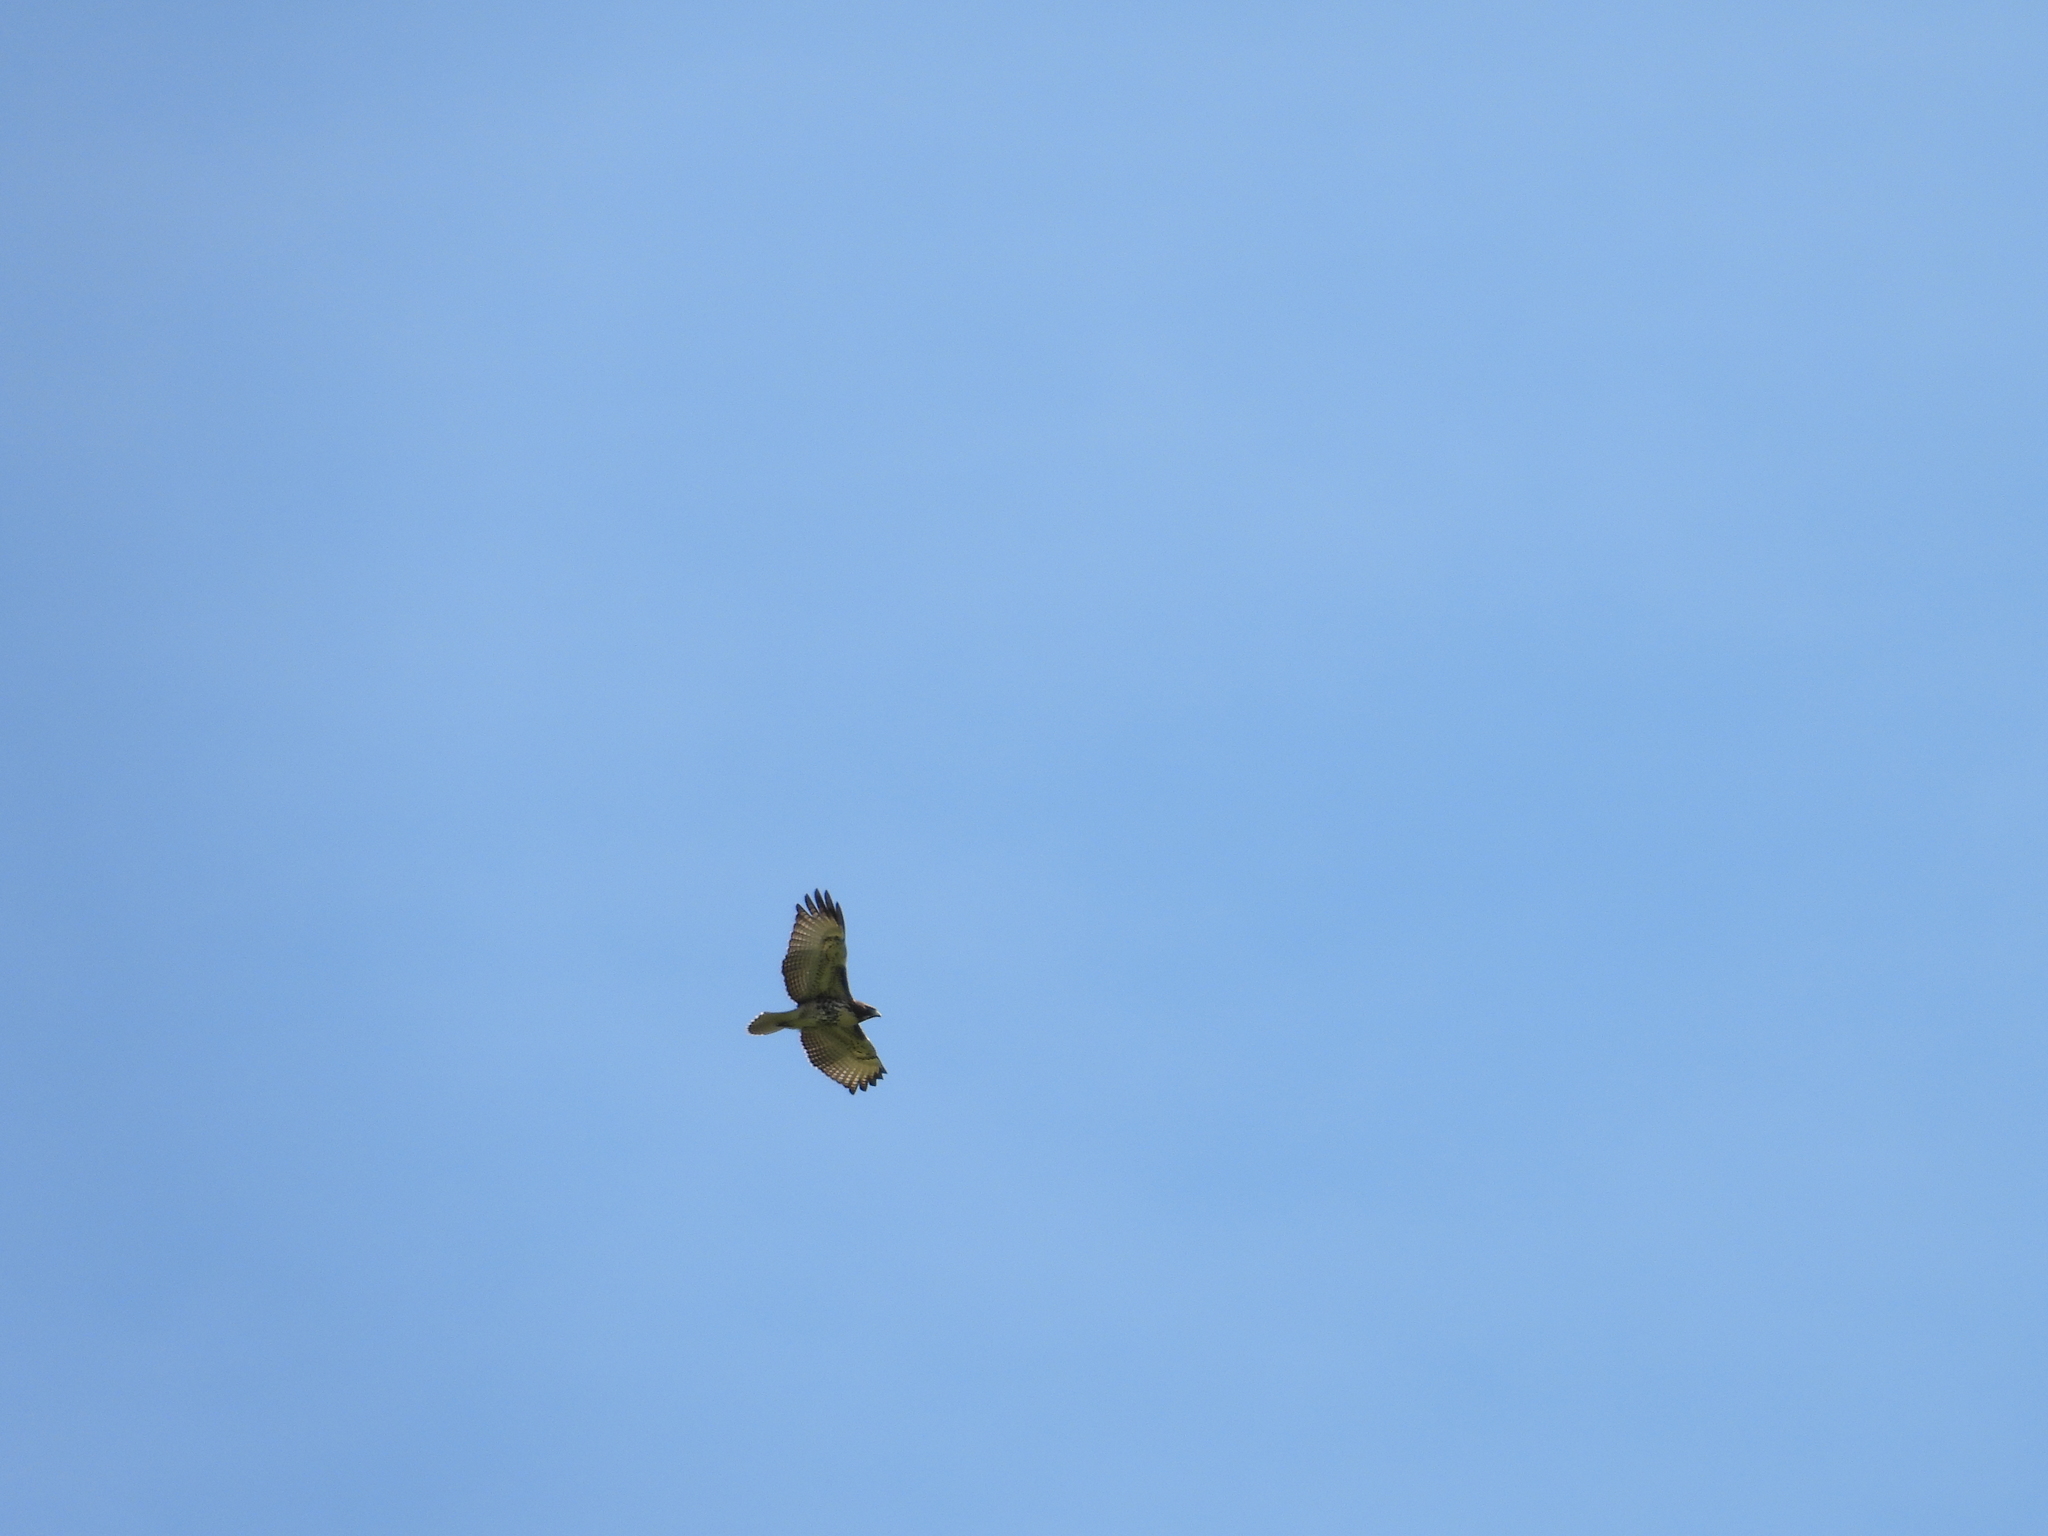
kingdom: Animalia
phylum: Chordata
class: Aves
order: Accipitriformes
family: Accipitridae
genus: Buteo
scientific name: Buteo jamaicensis
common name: Red-tailed hawk
